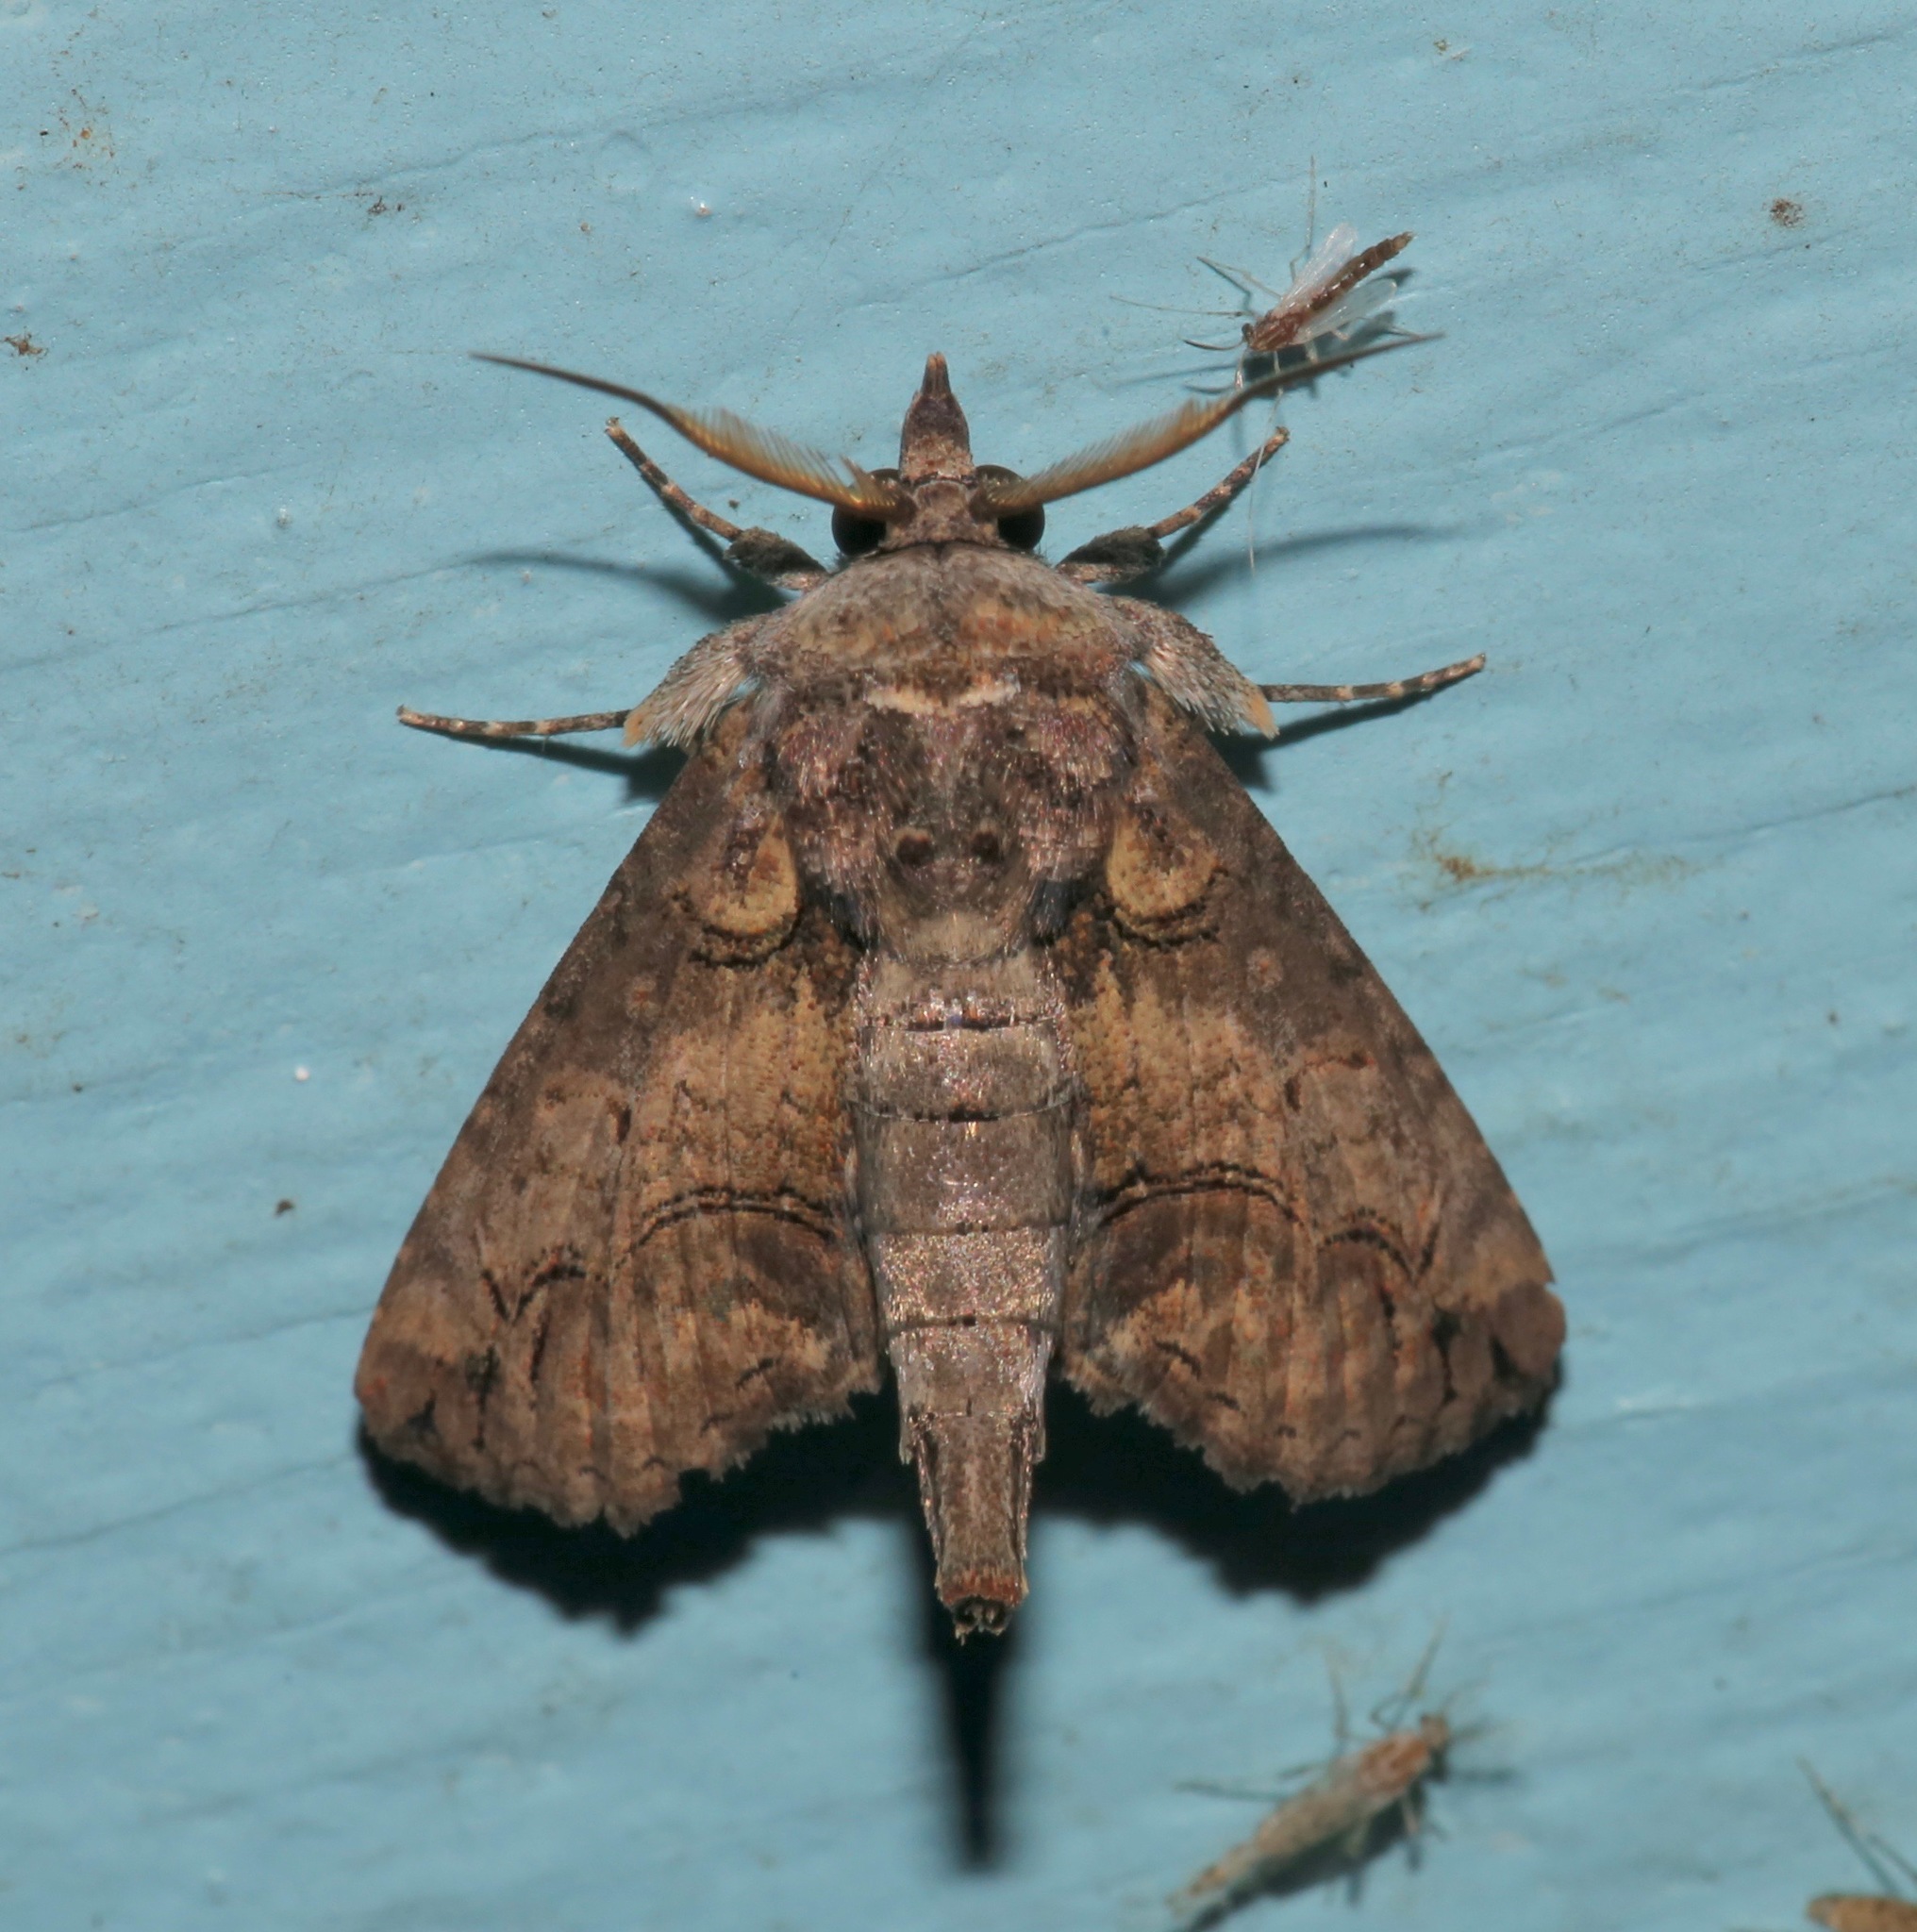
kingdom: Animalia
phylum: Arthropoda
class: Insecta
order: Lepidoptera
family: Euteliidae
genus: Paectes
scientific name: Paectes abrostoloides
